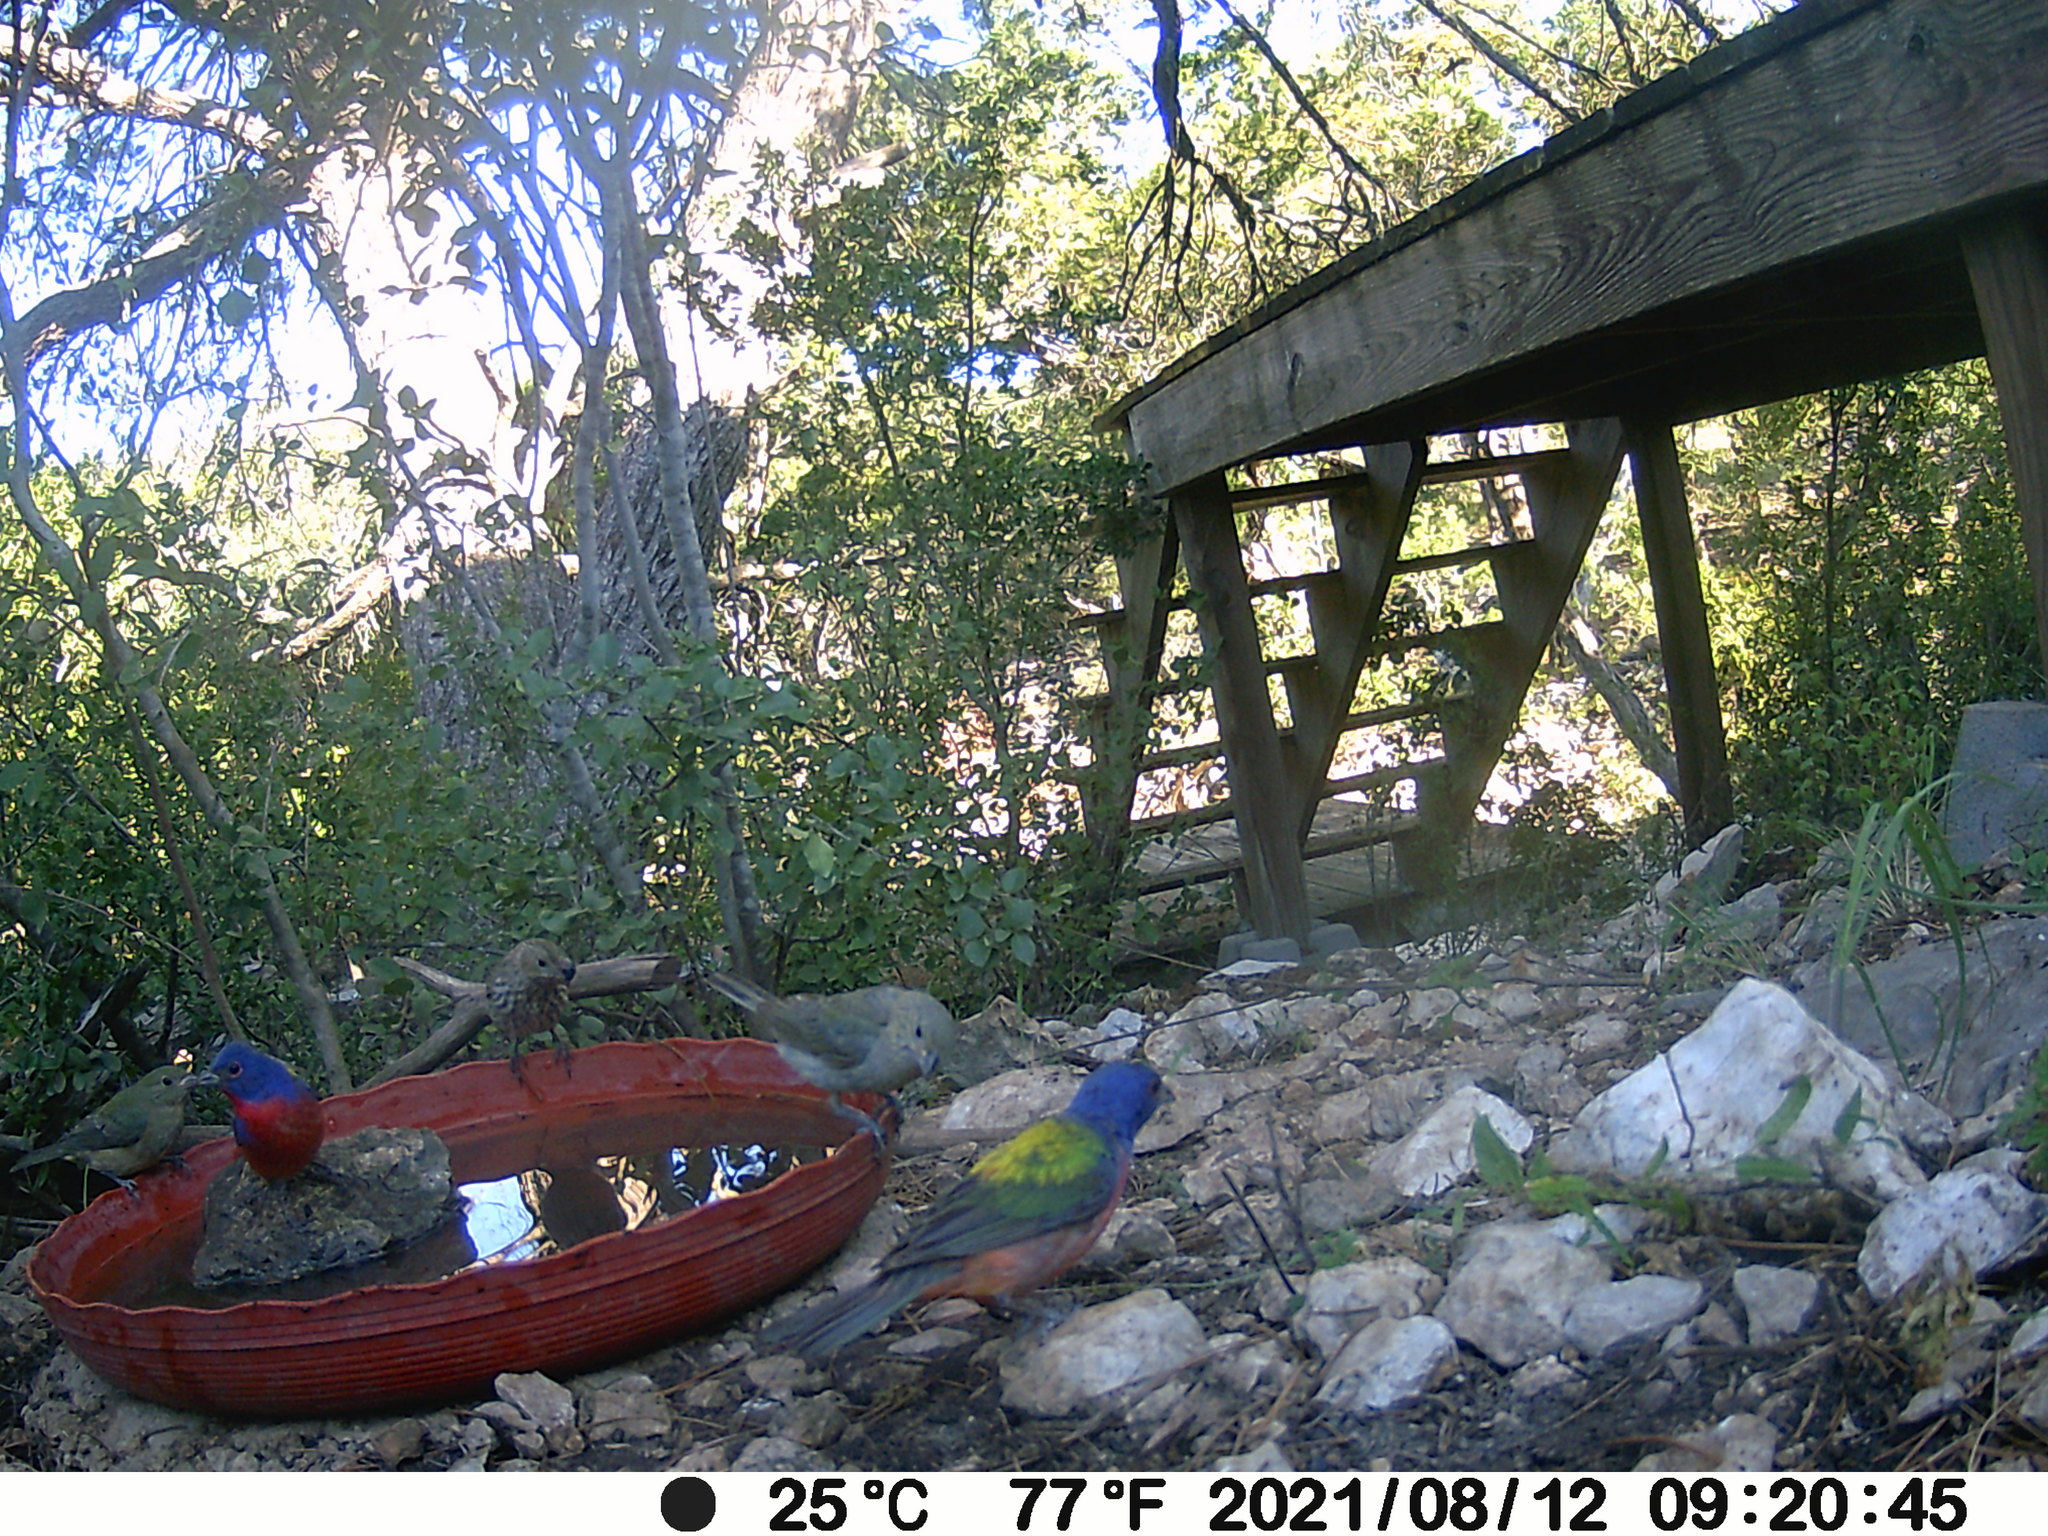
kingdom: Animalia
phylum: Chordata
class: Aves
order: Passeriformes
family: Cardinalidae
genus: Passerina
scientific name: Passerina ciris
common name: Painted bunting
